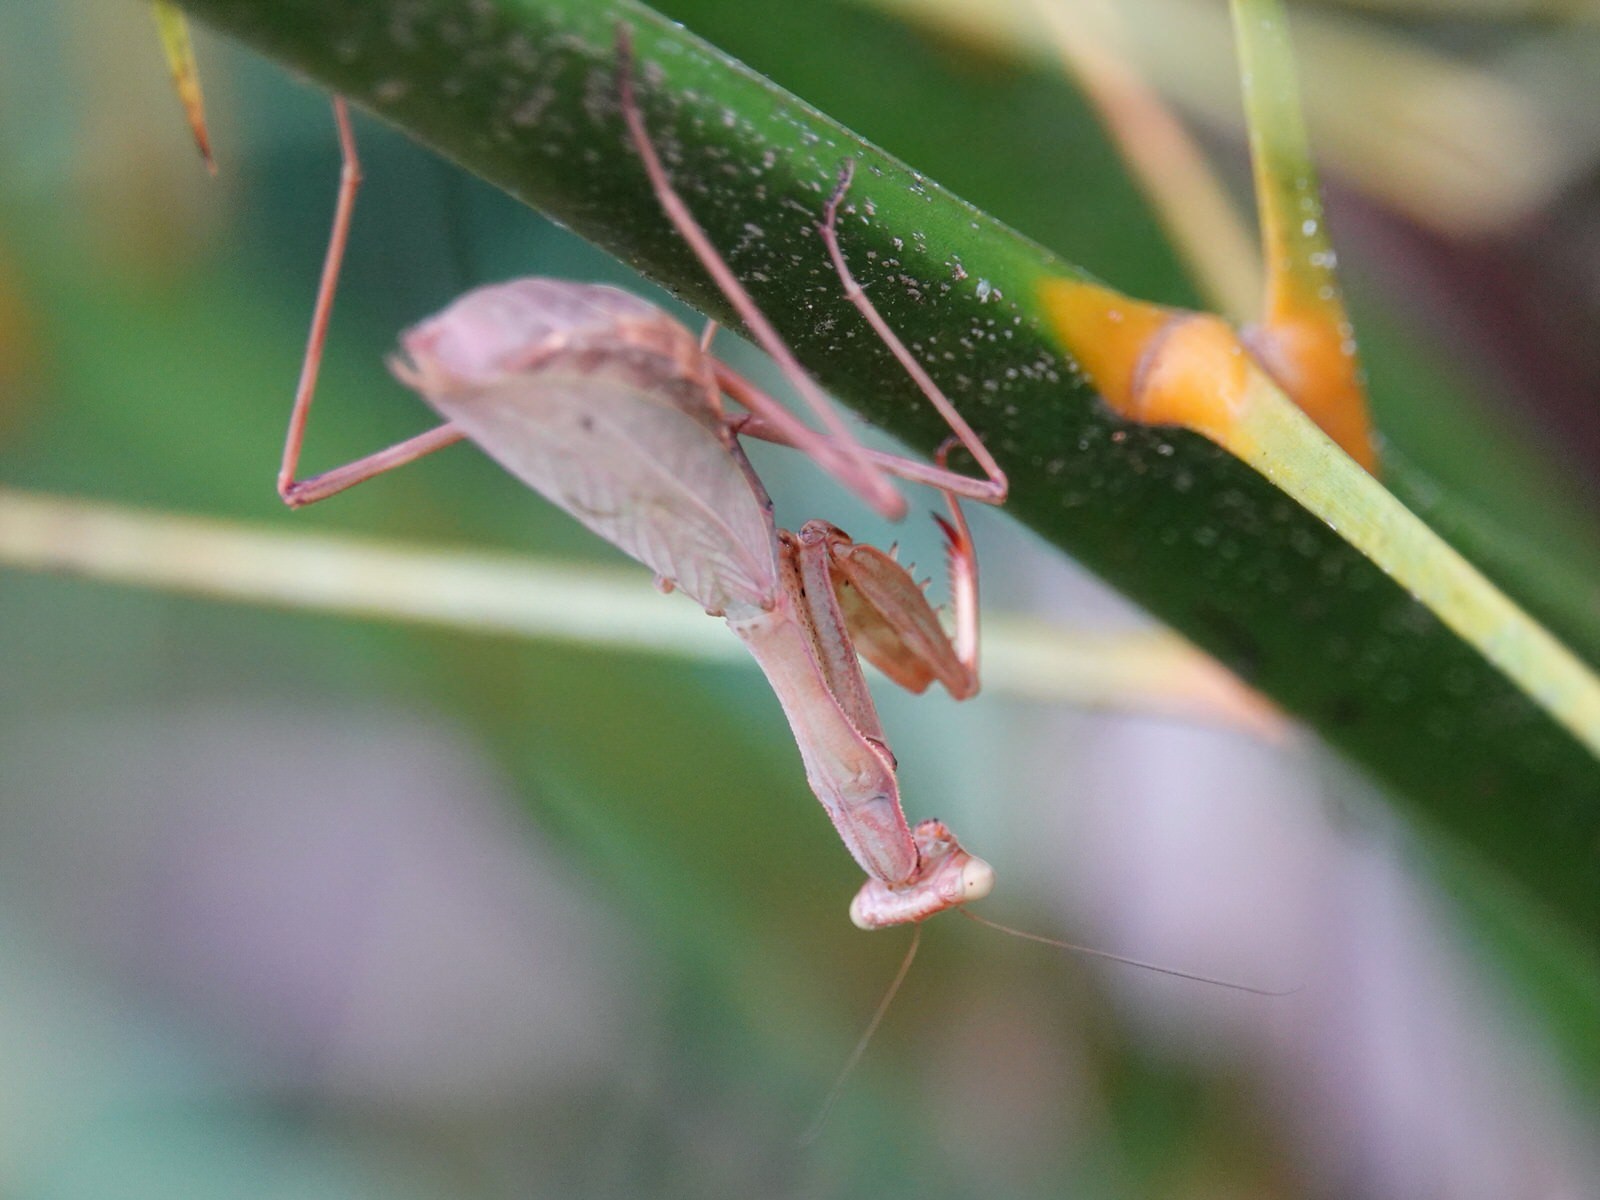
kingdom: Animalia
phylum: Arthropoda
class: Insecta
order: Mantodea
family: Miomantidae
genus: Miomantis
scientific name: Miomantis caffra
